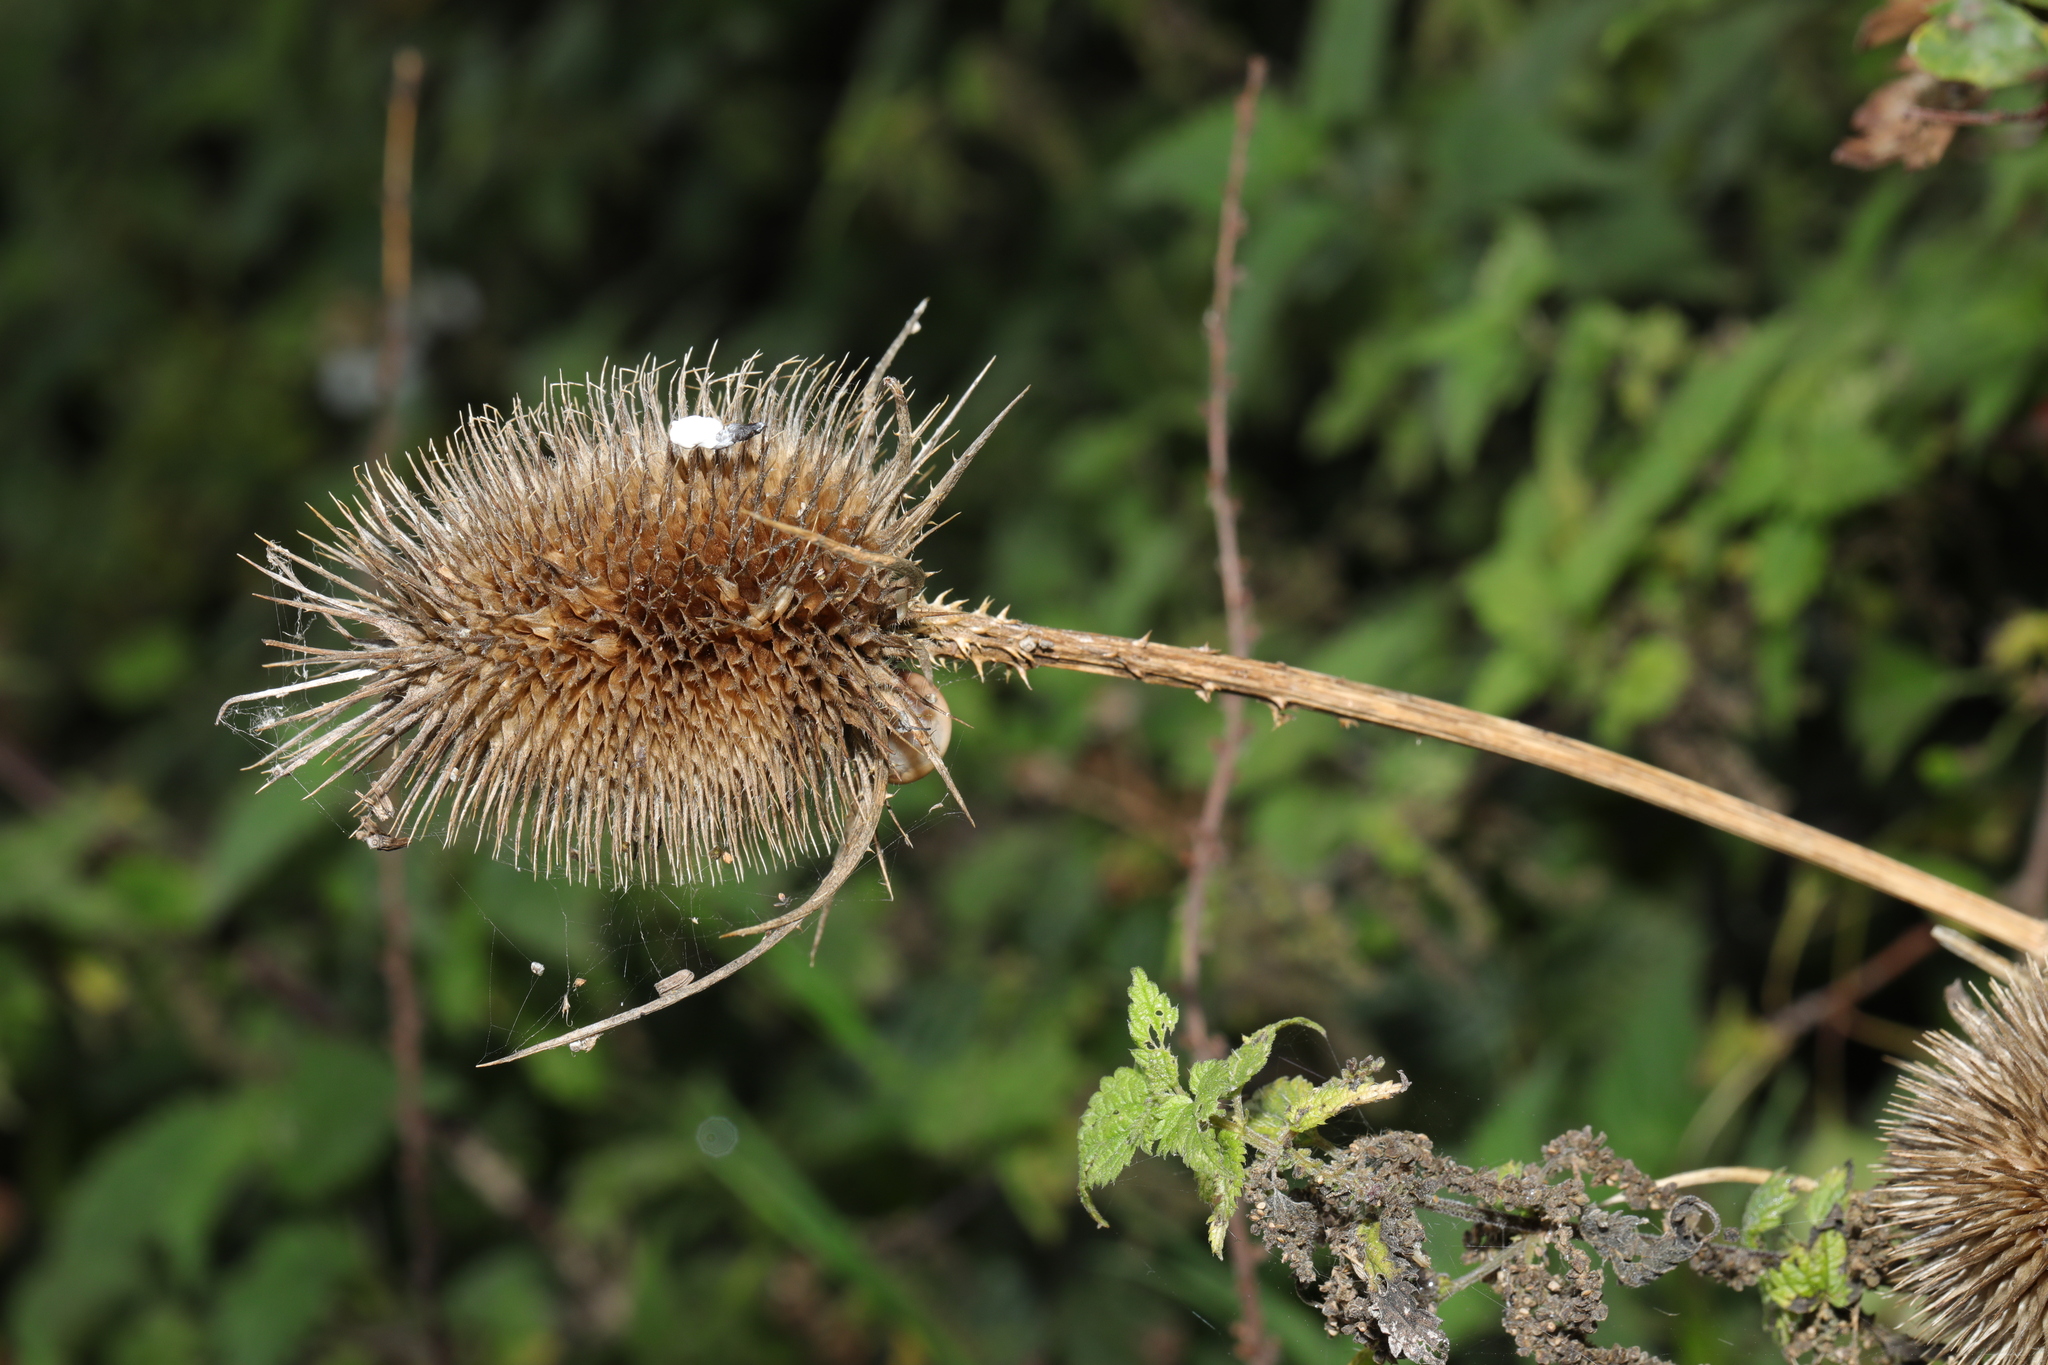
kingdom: Plantae
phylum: Tracheophyta
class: Magnoliopsida
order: Dipsacales
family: Caprifoliaceae
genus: Dipsacus
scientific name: Dipsacus fullonum
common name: Teasel
